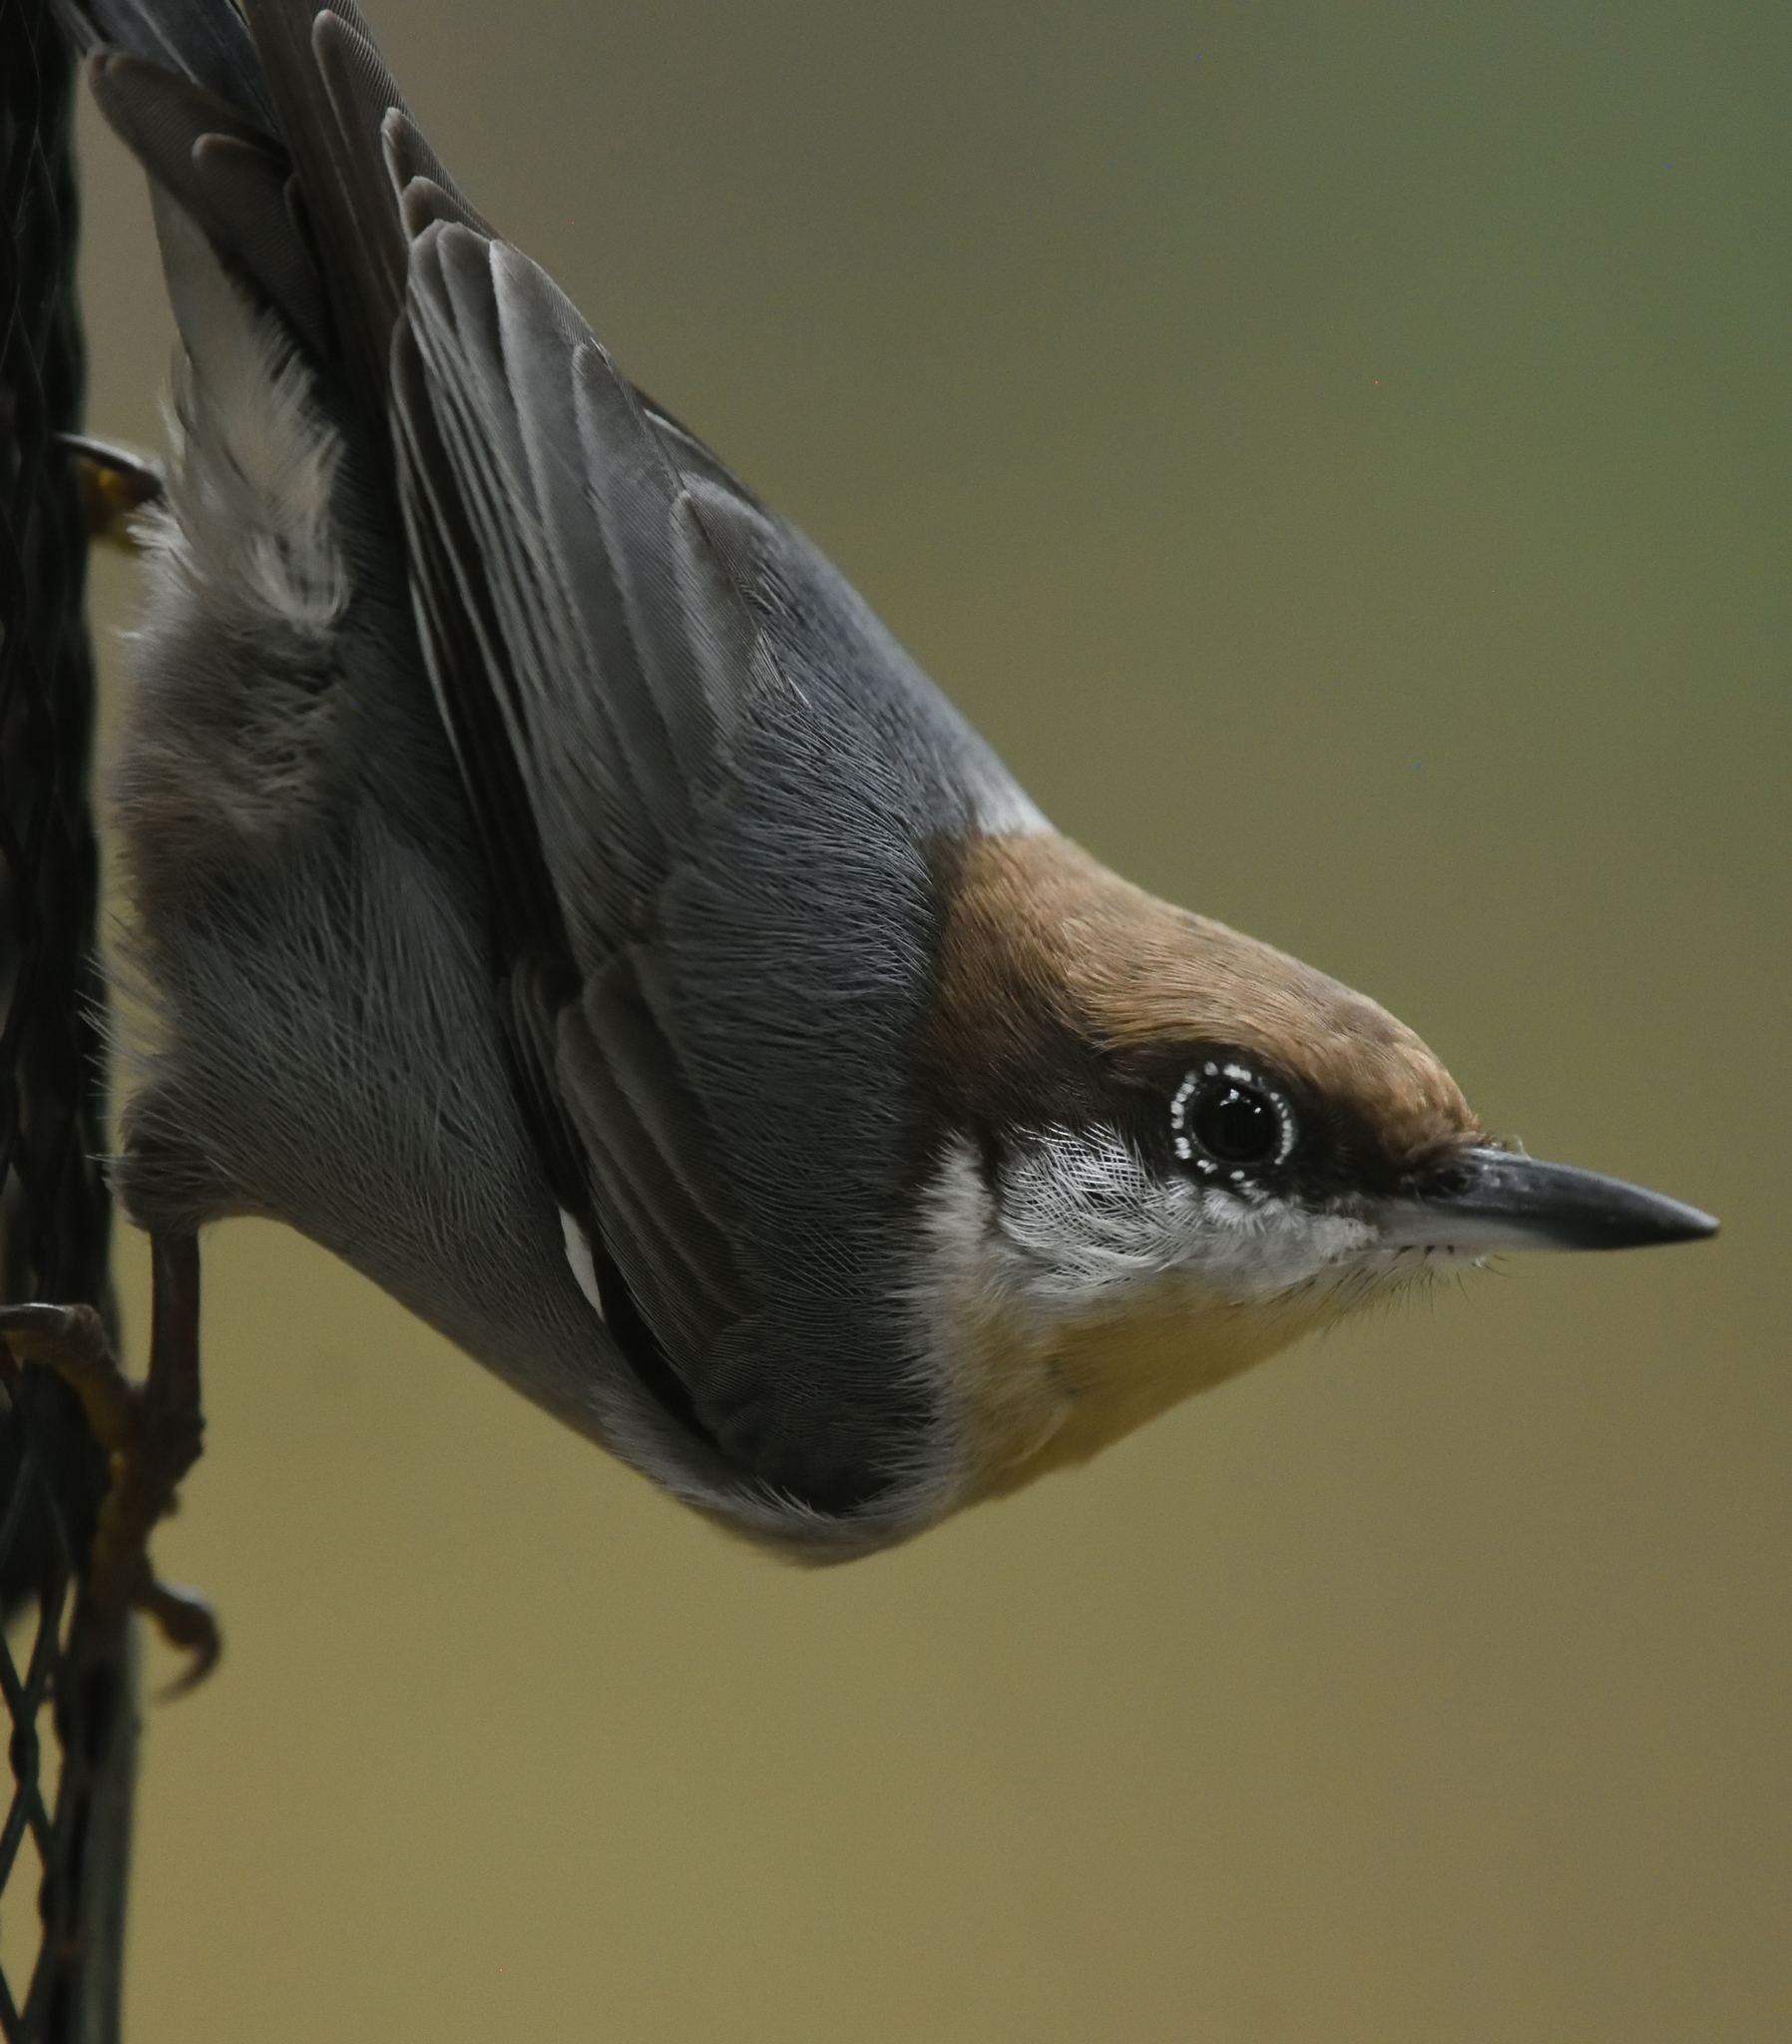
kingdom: Animalia
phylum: Chordata
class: Aves
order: Passeriformes
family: Sittidae
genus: Sitta
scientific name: Sitta pusilla
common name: Brown-headed nuthatch
